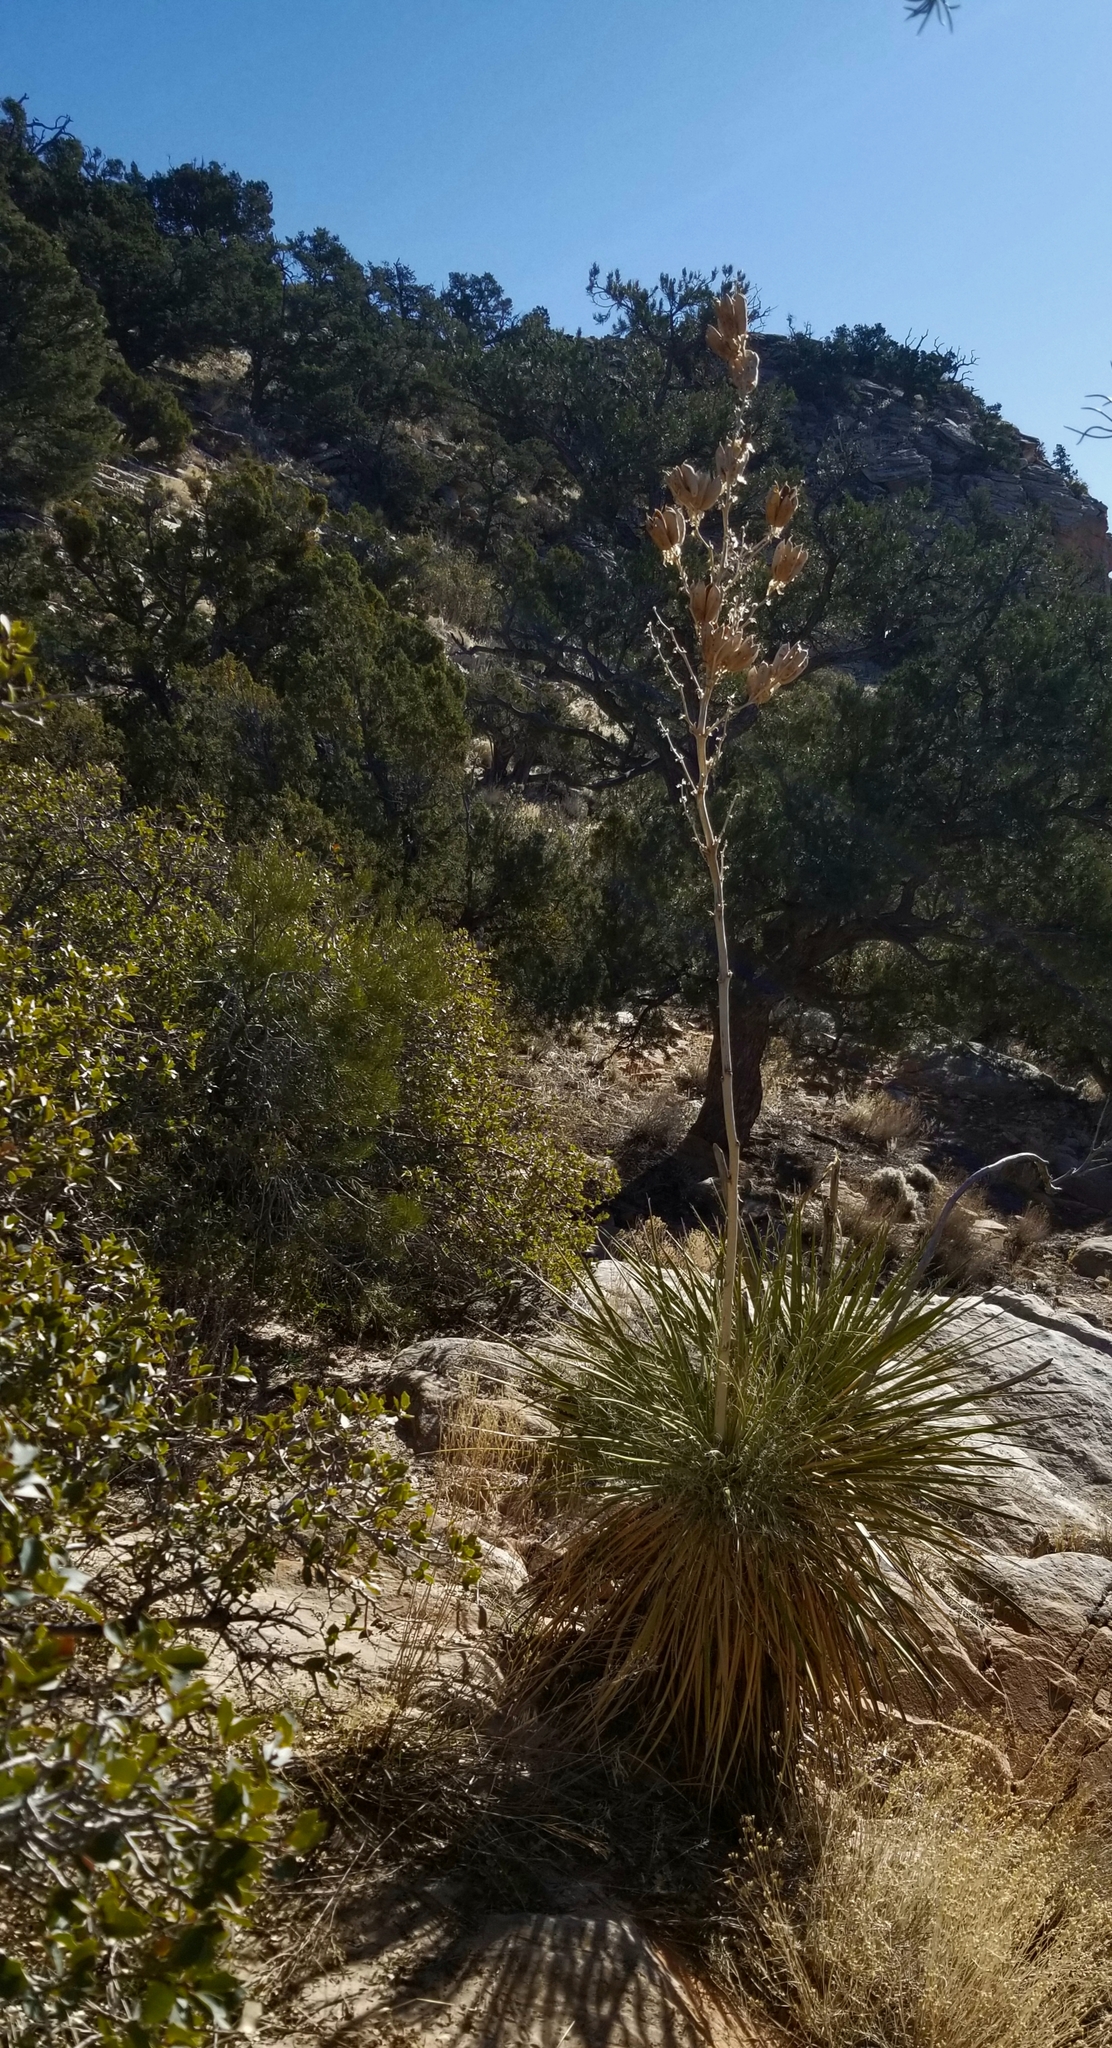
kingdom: Plantae
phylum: Tracheophyta
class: Liliopsida
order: Asparagales
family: Asparagaceae
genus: Yucca
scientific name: Yucca utahensis
